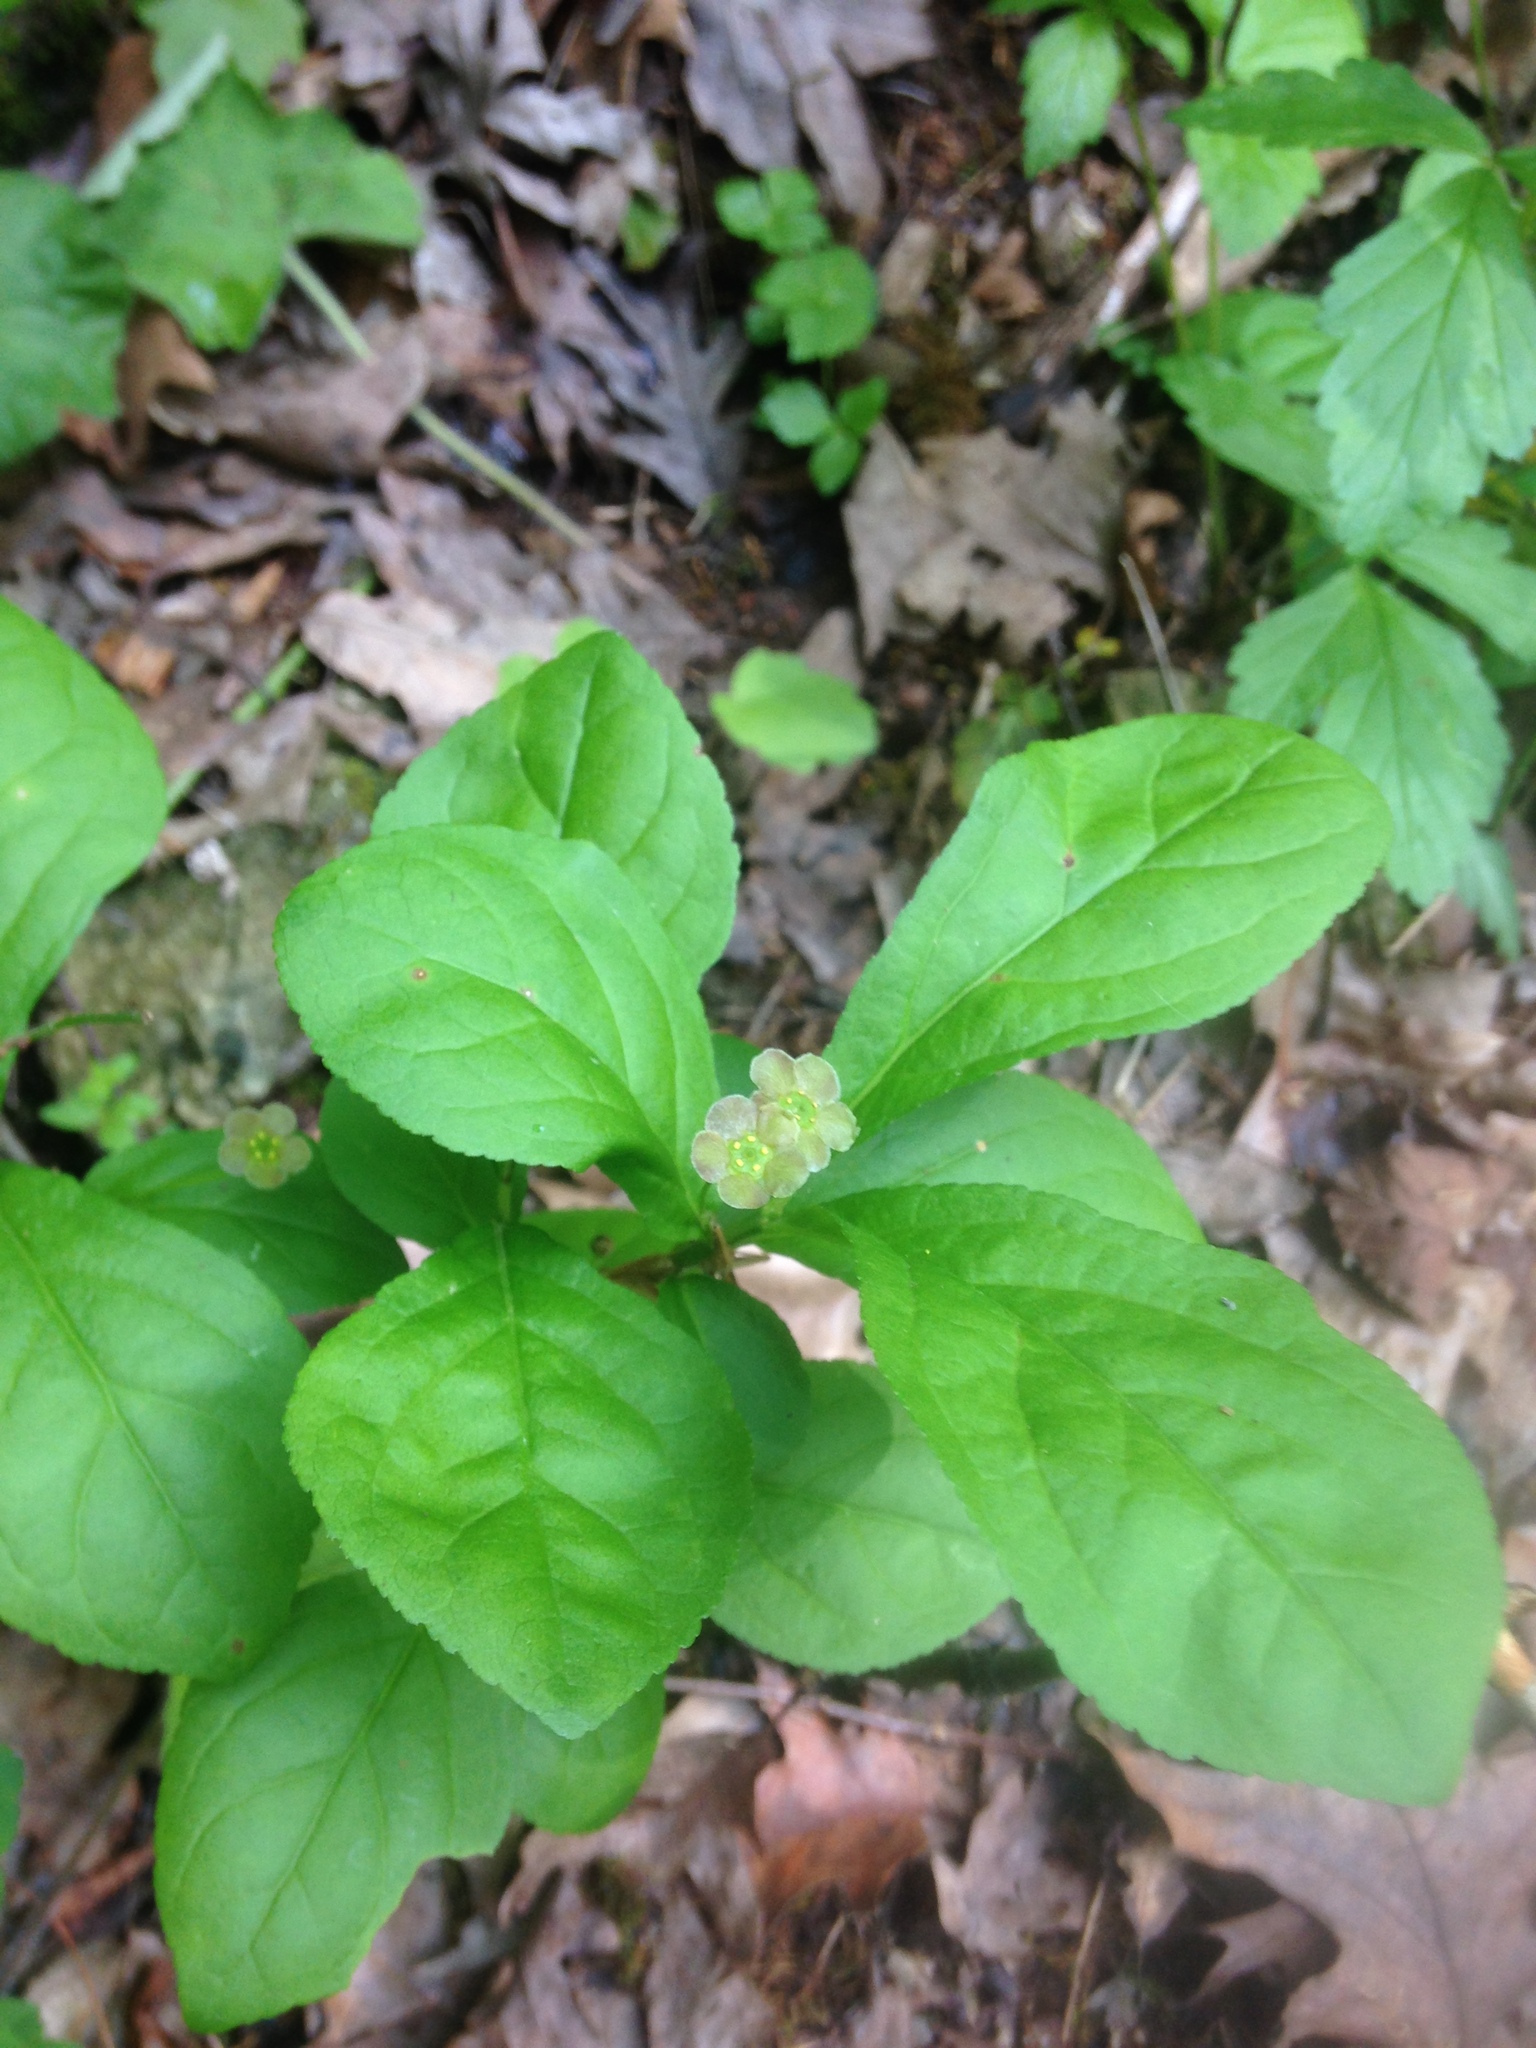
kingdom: Plantae
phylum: Tracheophyta
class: Magnoliopsida
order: Celastrales
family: Celastraceae
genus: Euonymus
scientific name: Euonymus obovatus
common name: Running strawberry-bush
